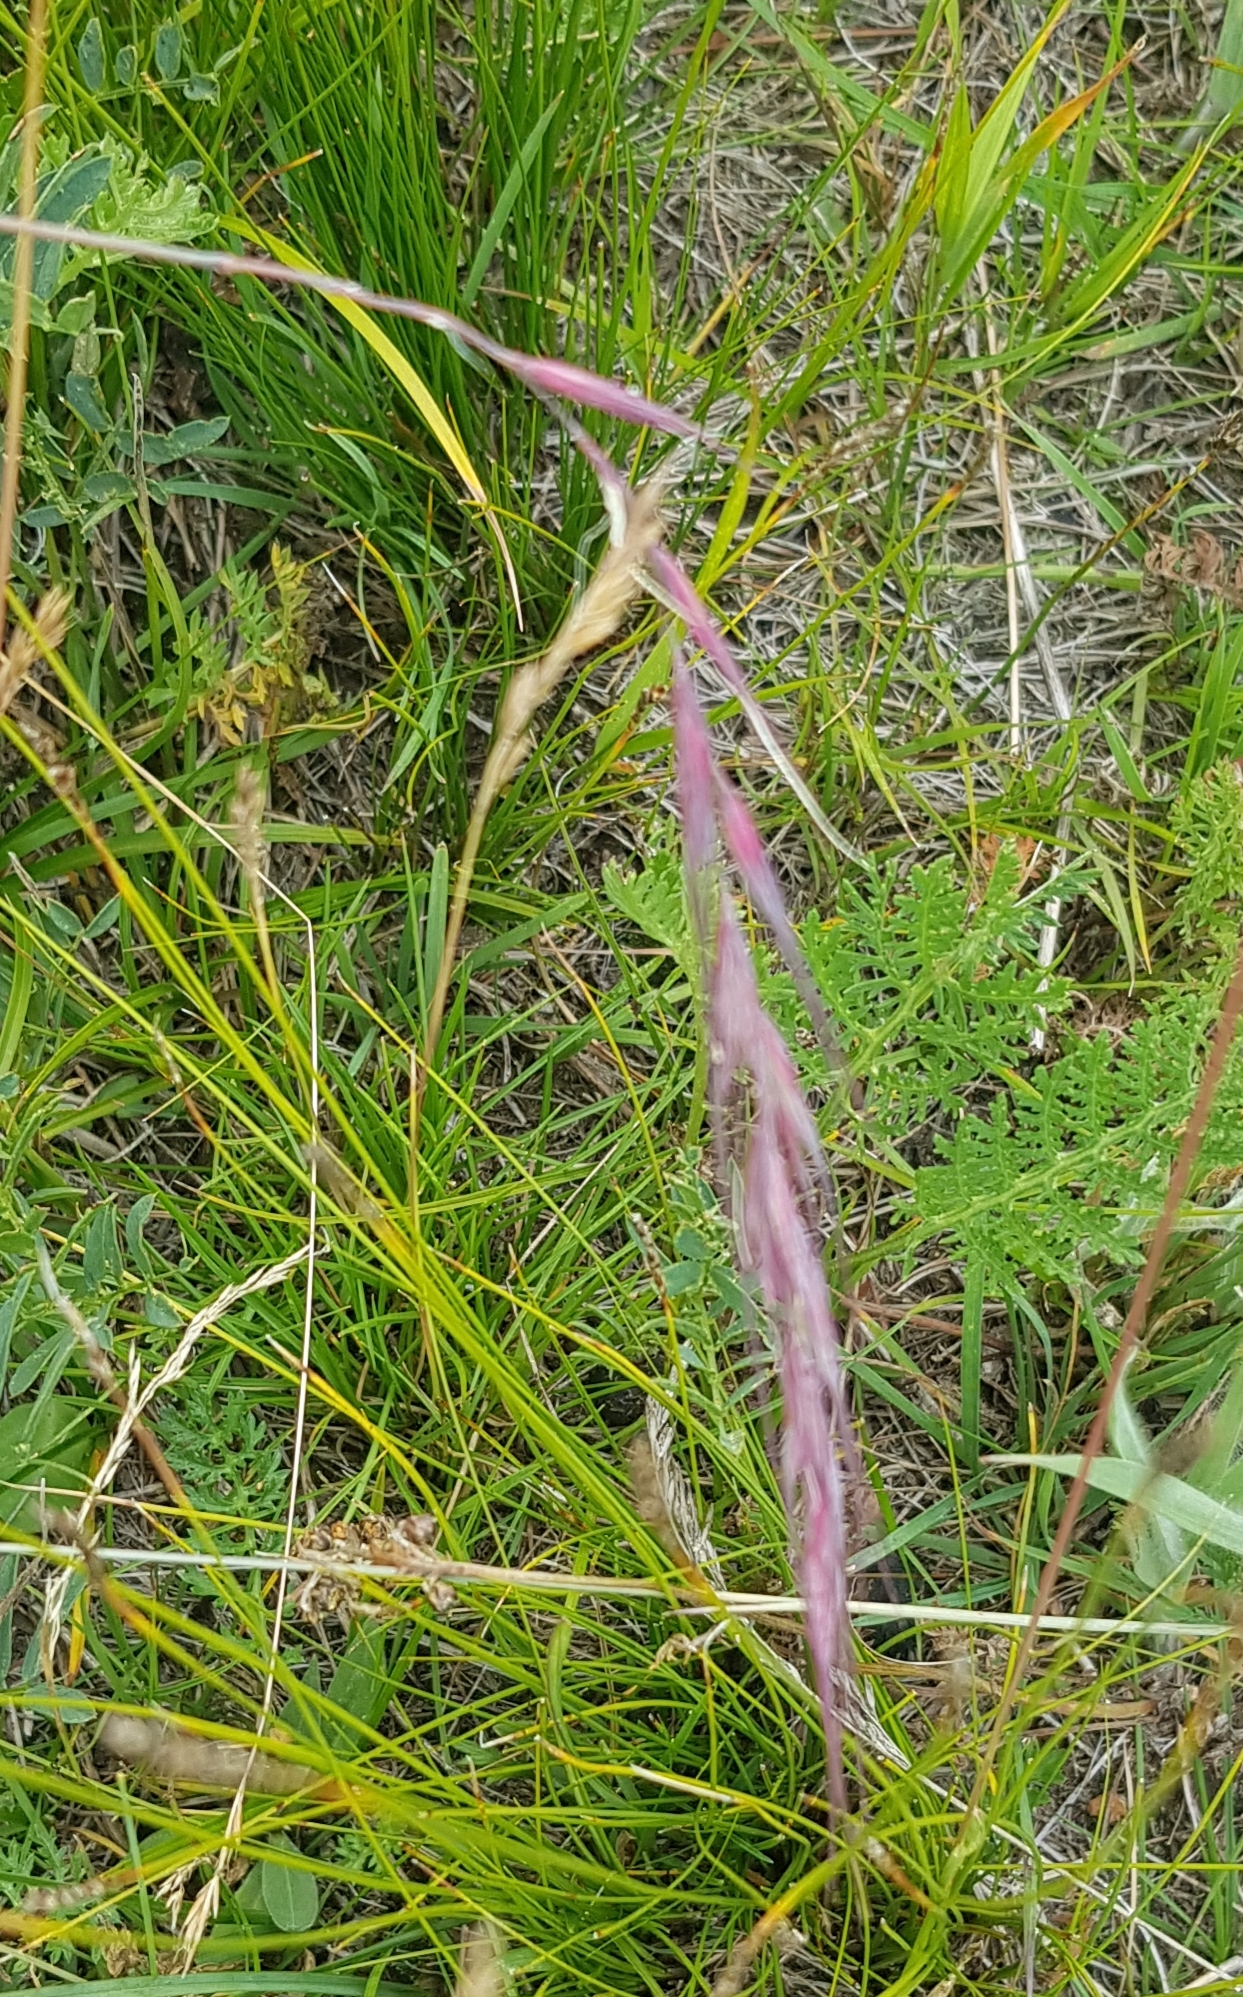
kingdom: Plantae
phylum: Tracheophyta
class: Liliopsida
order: Poales
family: Poaceae
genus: Elymus
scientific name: Elymus sibiricus
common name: Siberian wildrye
